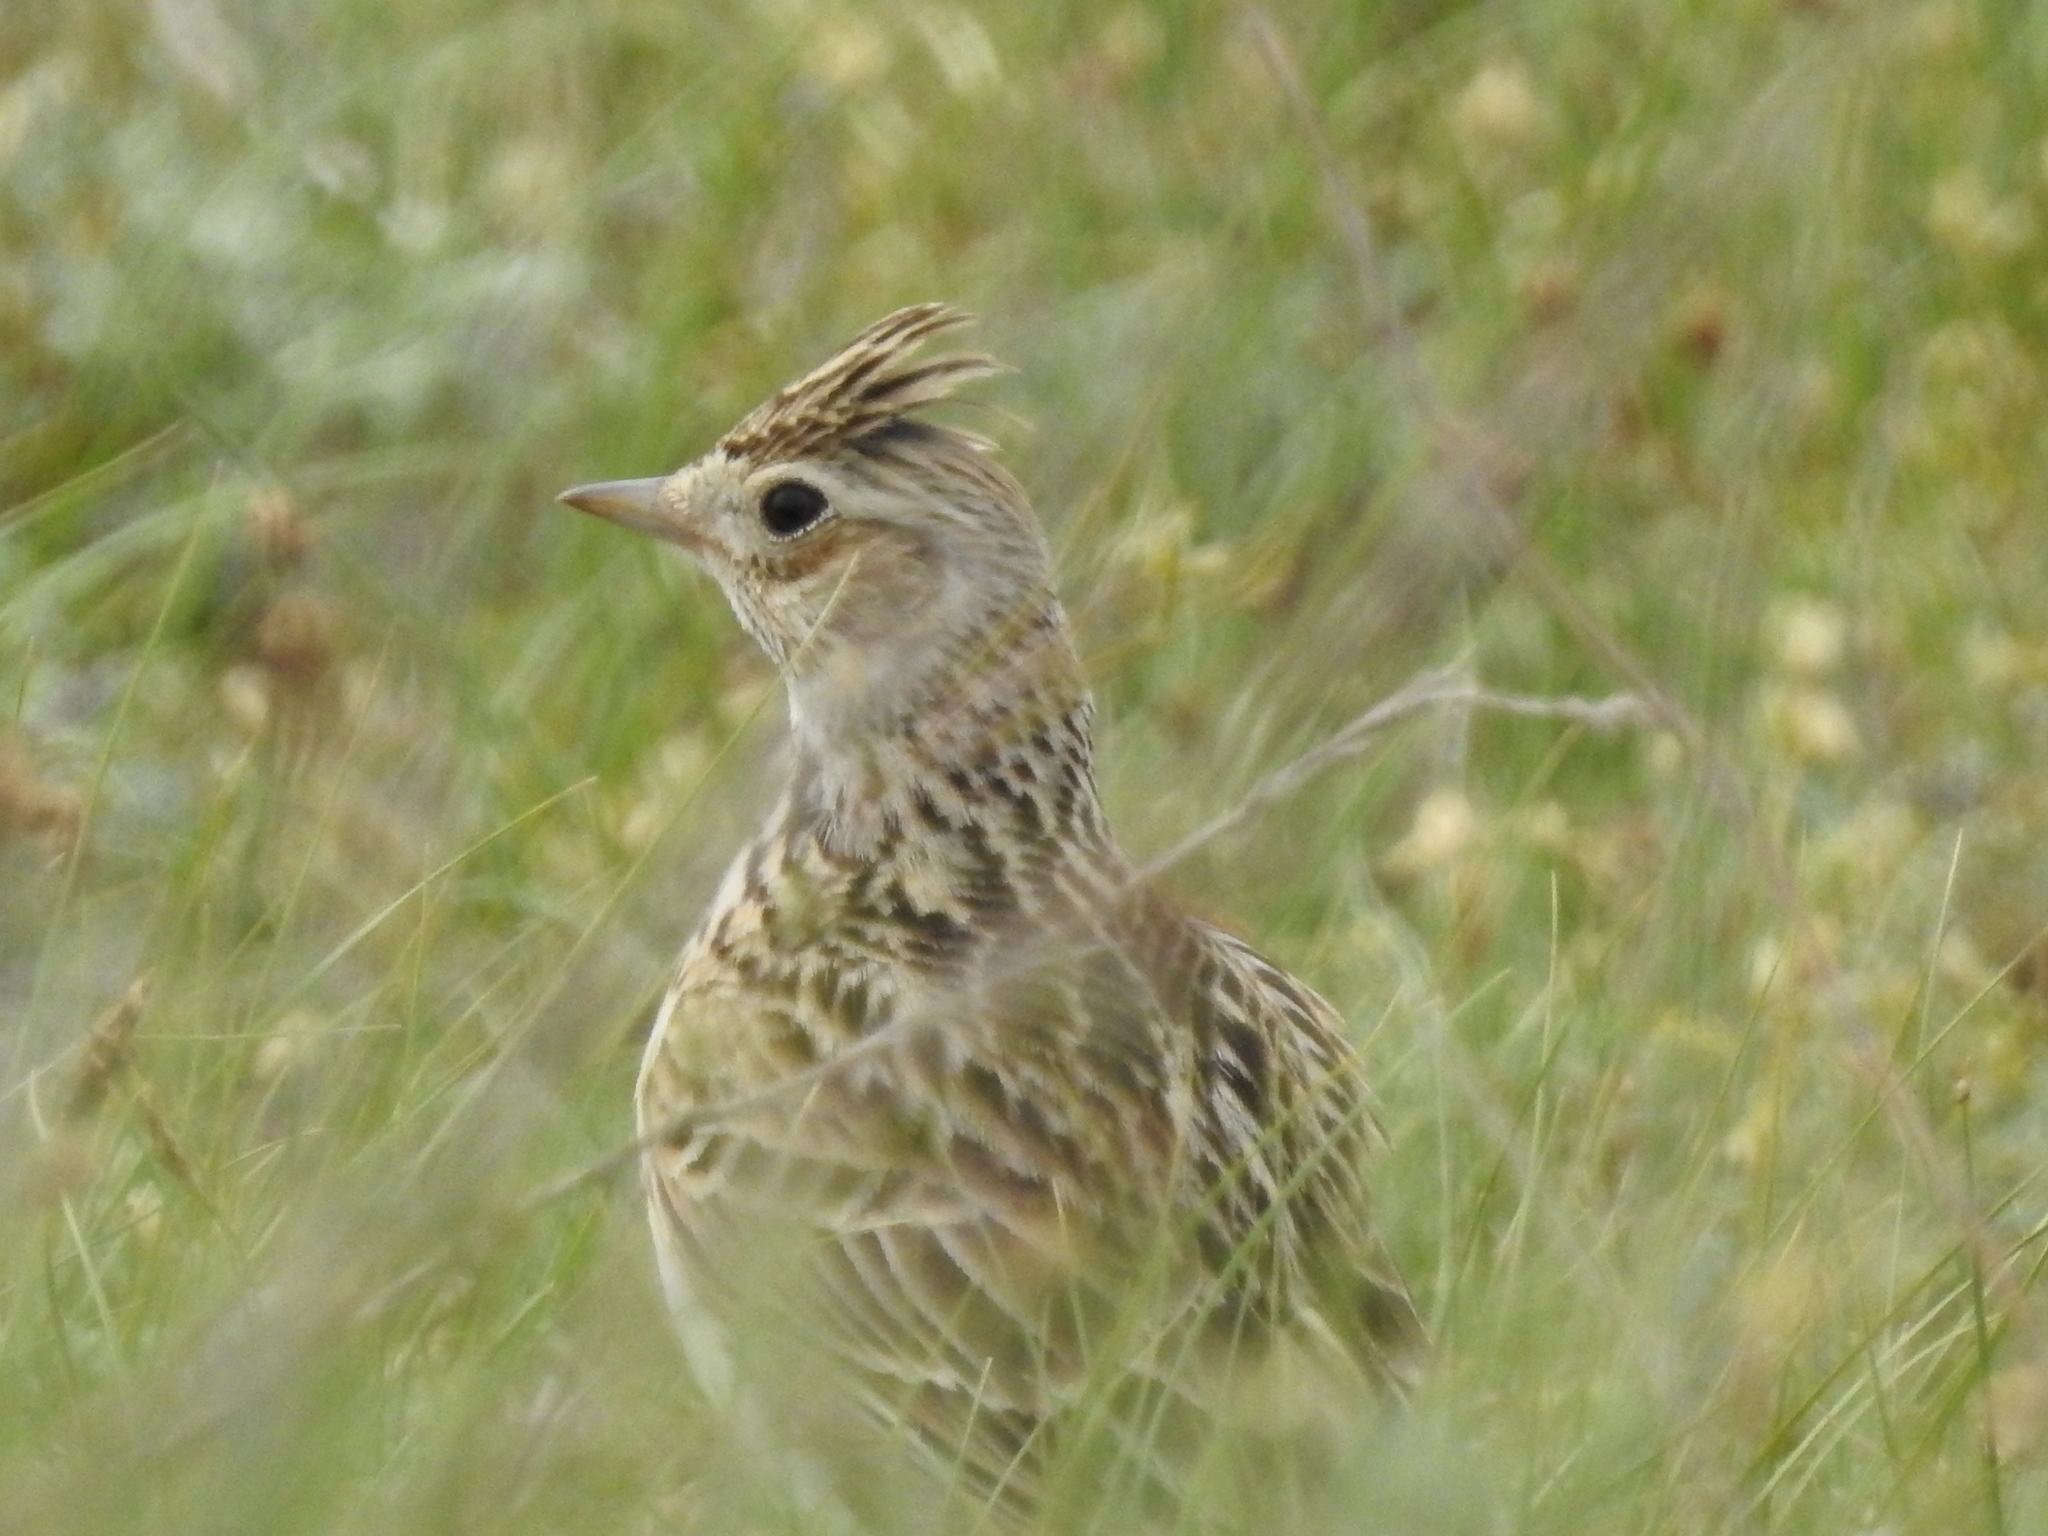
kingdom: Animalia
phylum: Chordata
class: Aves
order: Passeriformes
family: Alaudidae
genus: Alauda
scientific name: Alauda arvensis
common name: Eurasian skylark
